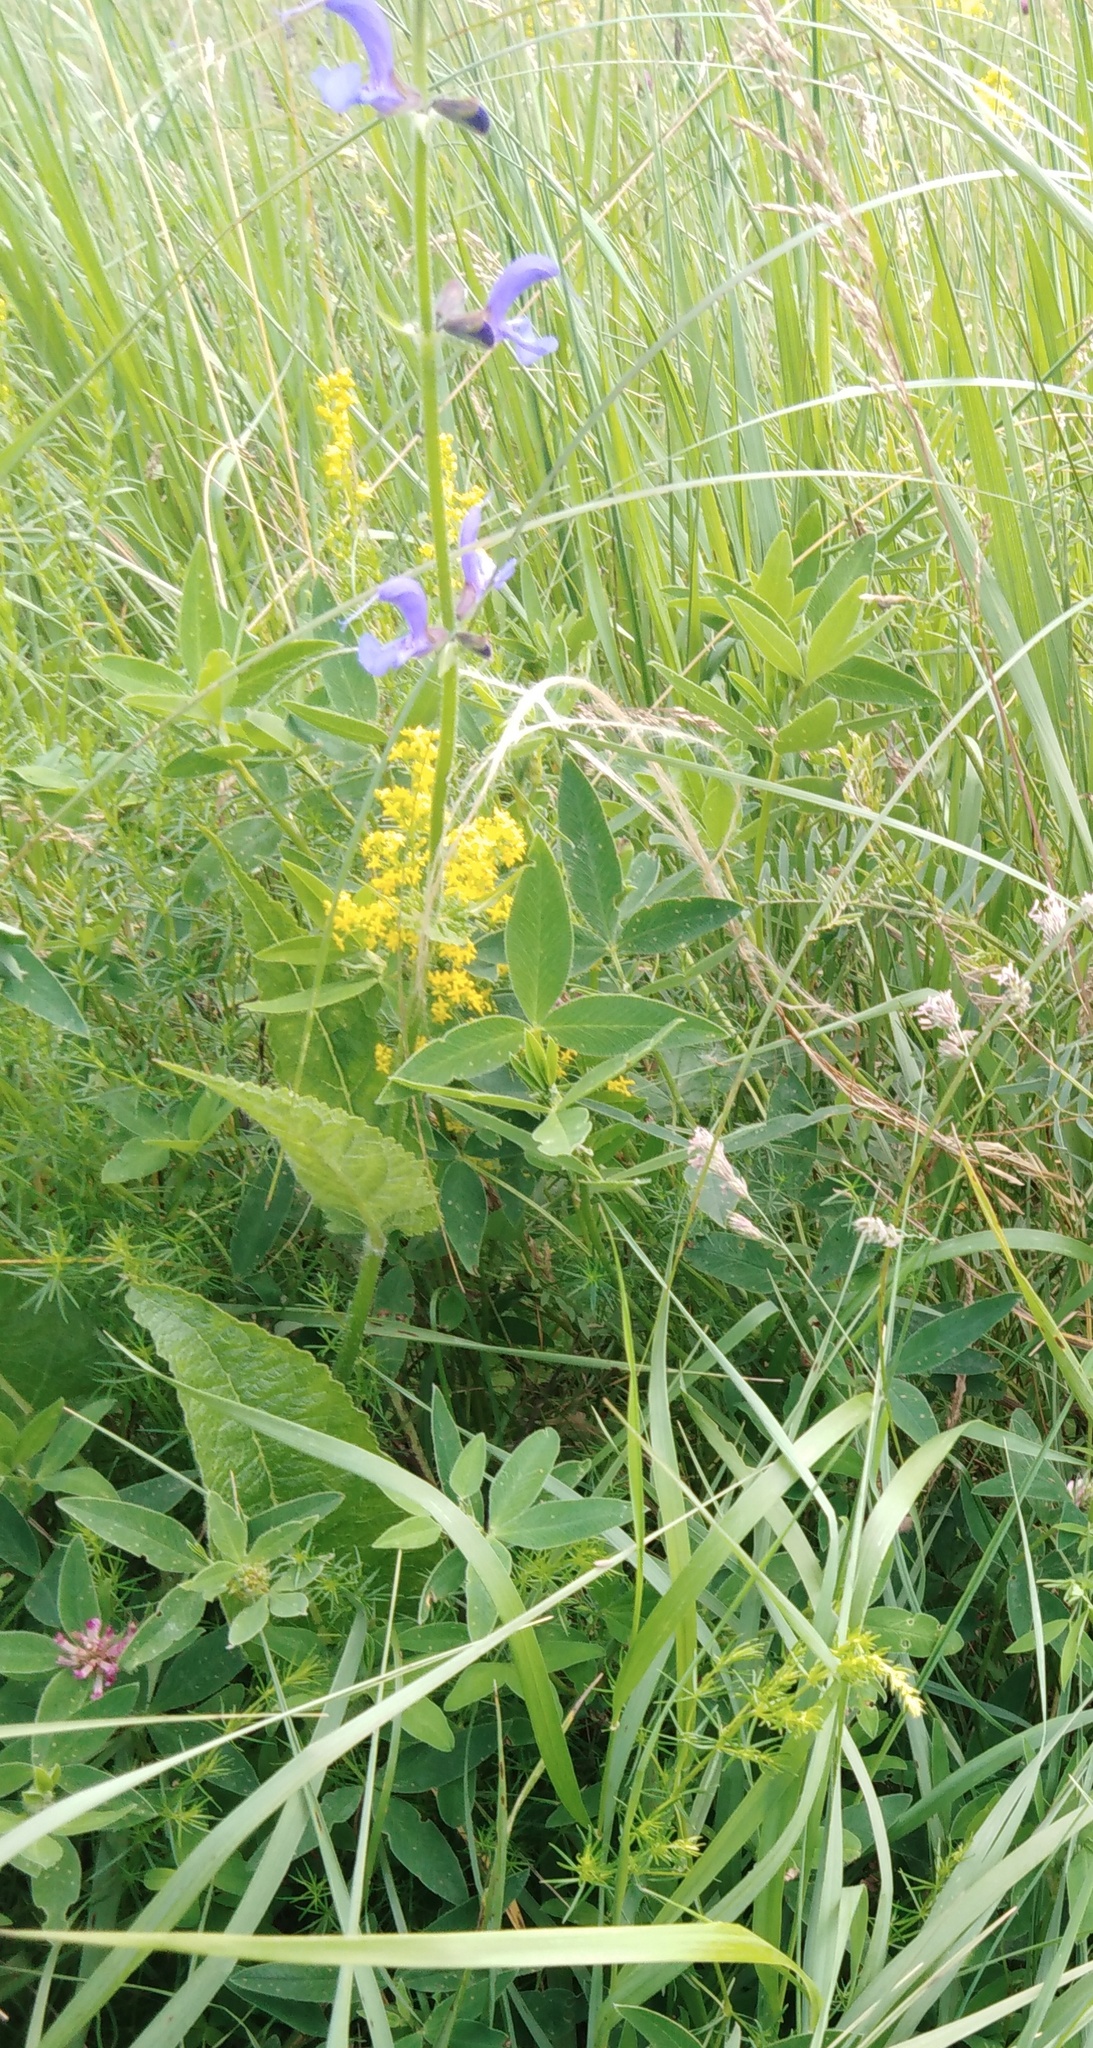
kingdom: Plantae
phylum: Tracheophyta
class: Magnoliopsida
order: Lamiales
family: Lamiaceae
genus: Salvia
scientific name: Salvia pratensis
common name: Meadow sage
